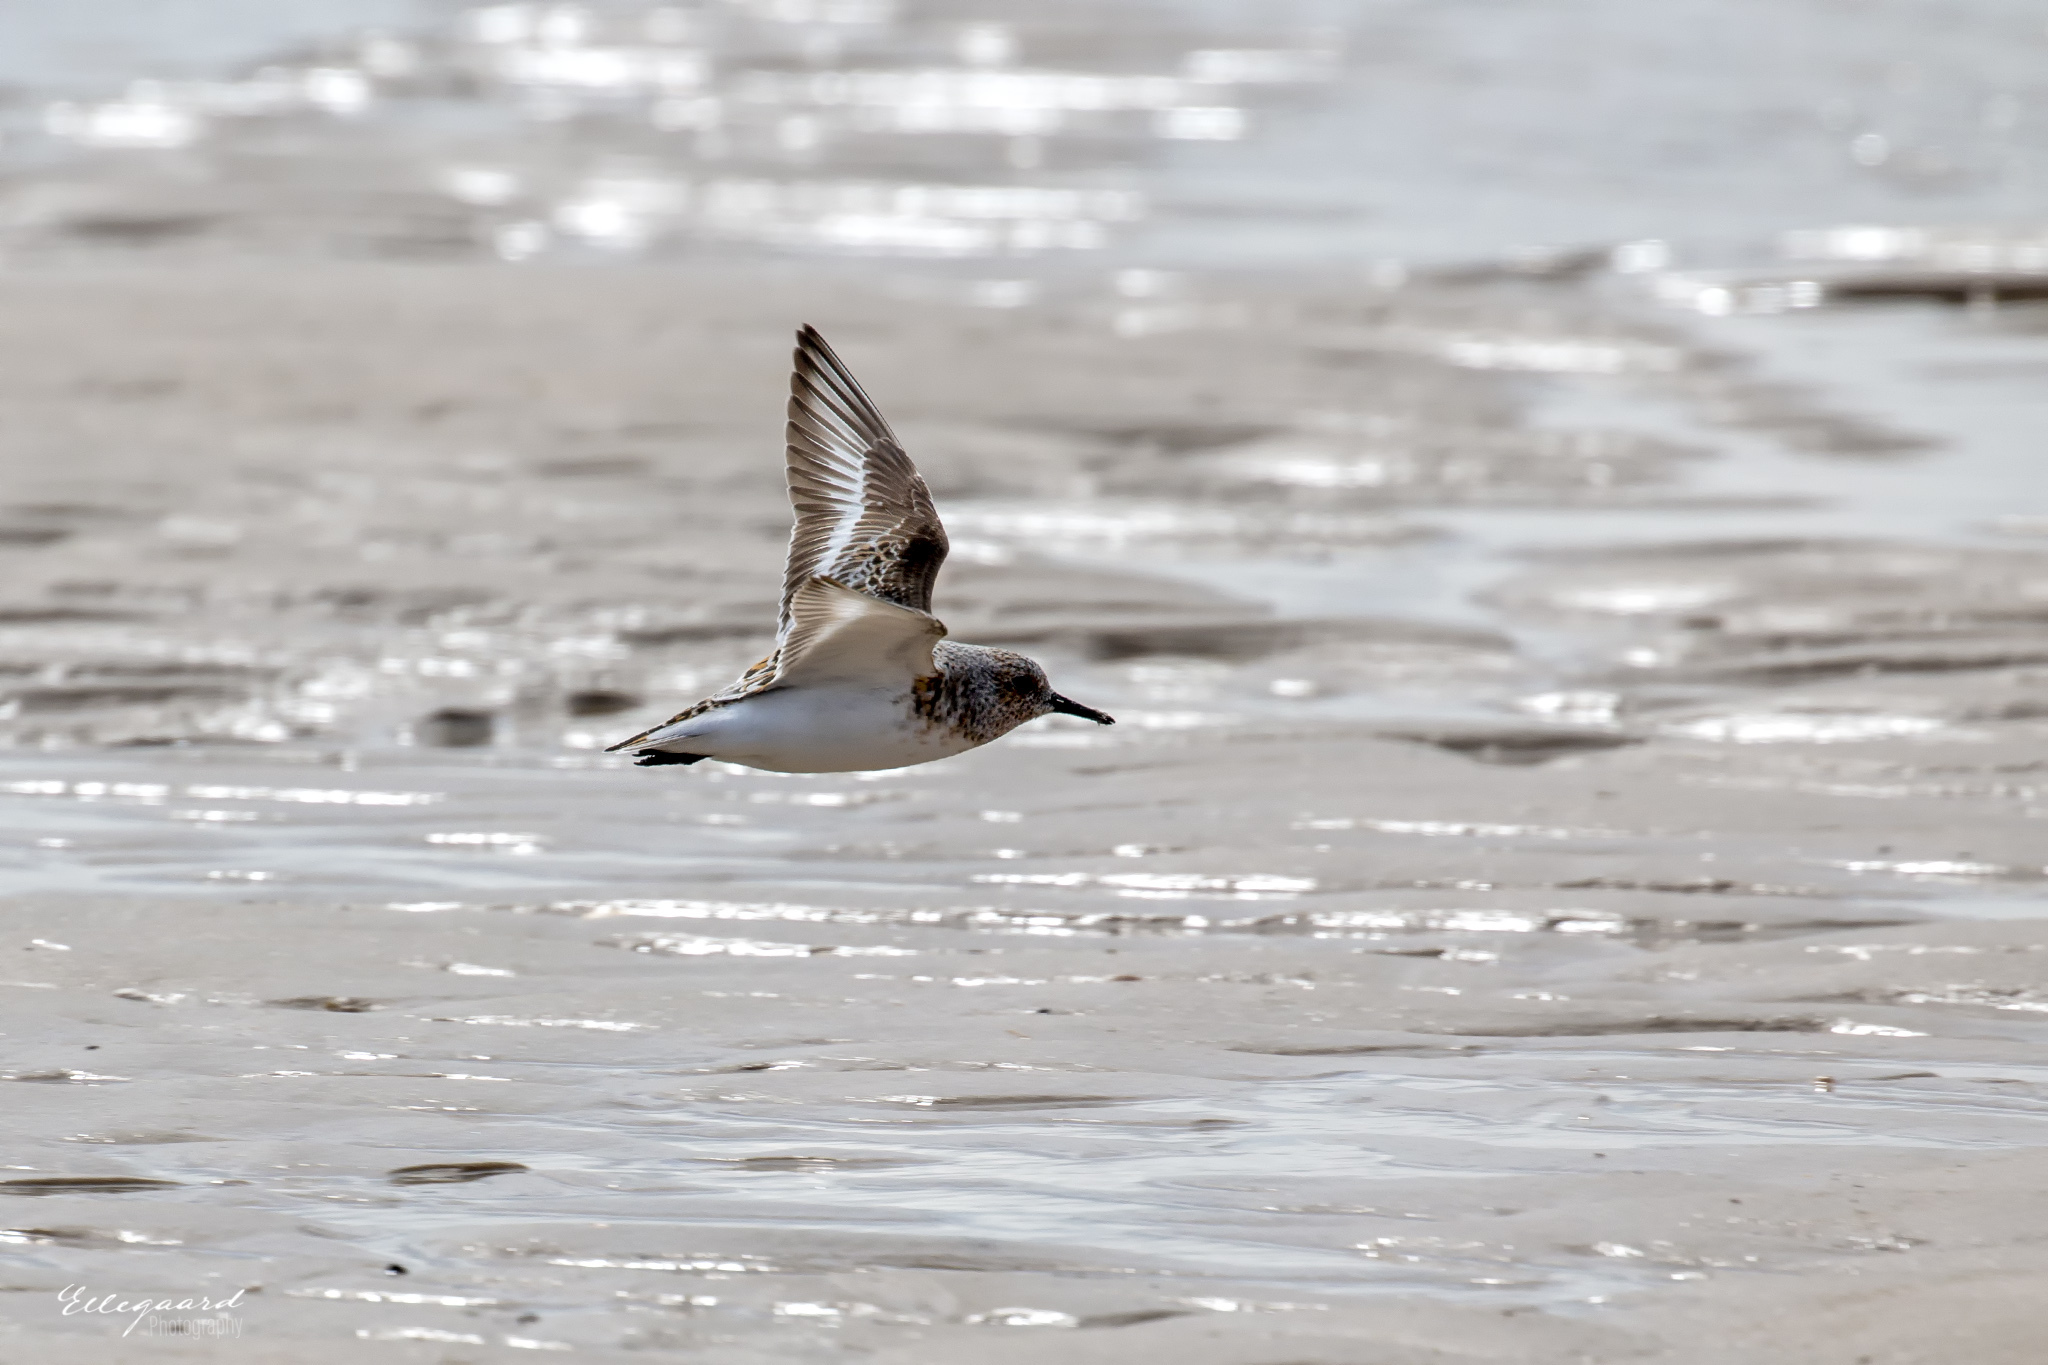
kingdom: Animalia
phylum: Chordata
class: Aves
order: Charadriiformes
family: Scolopacidae
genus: Calidris
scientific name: Calidris alba
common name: Sanderling
